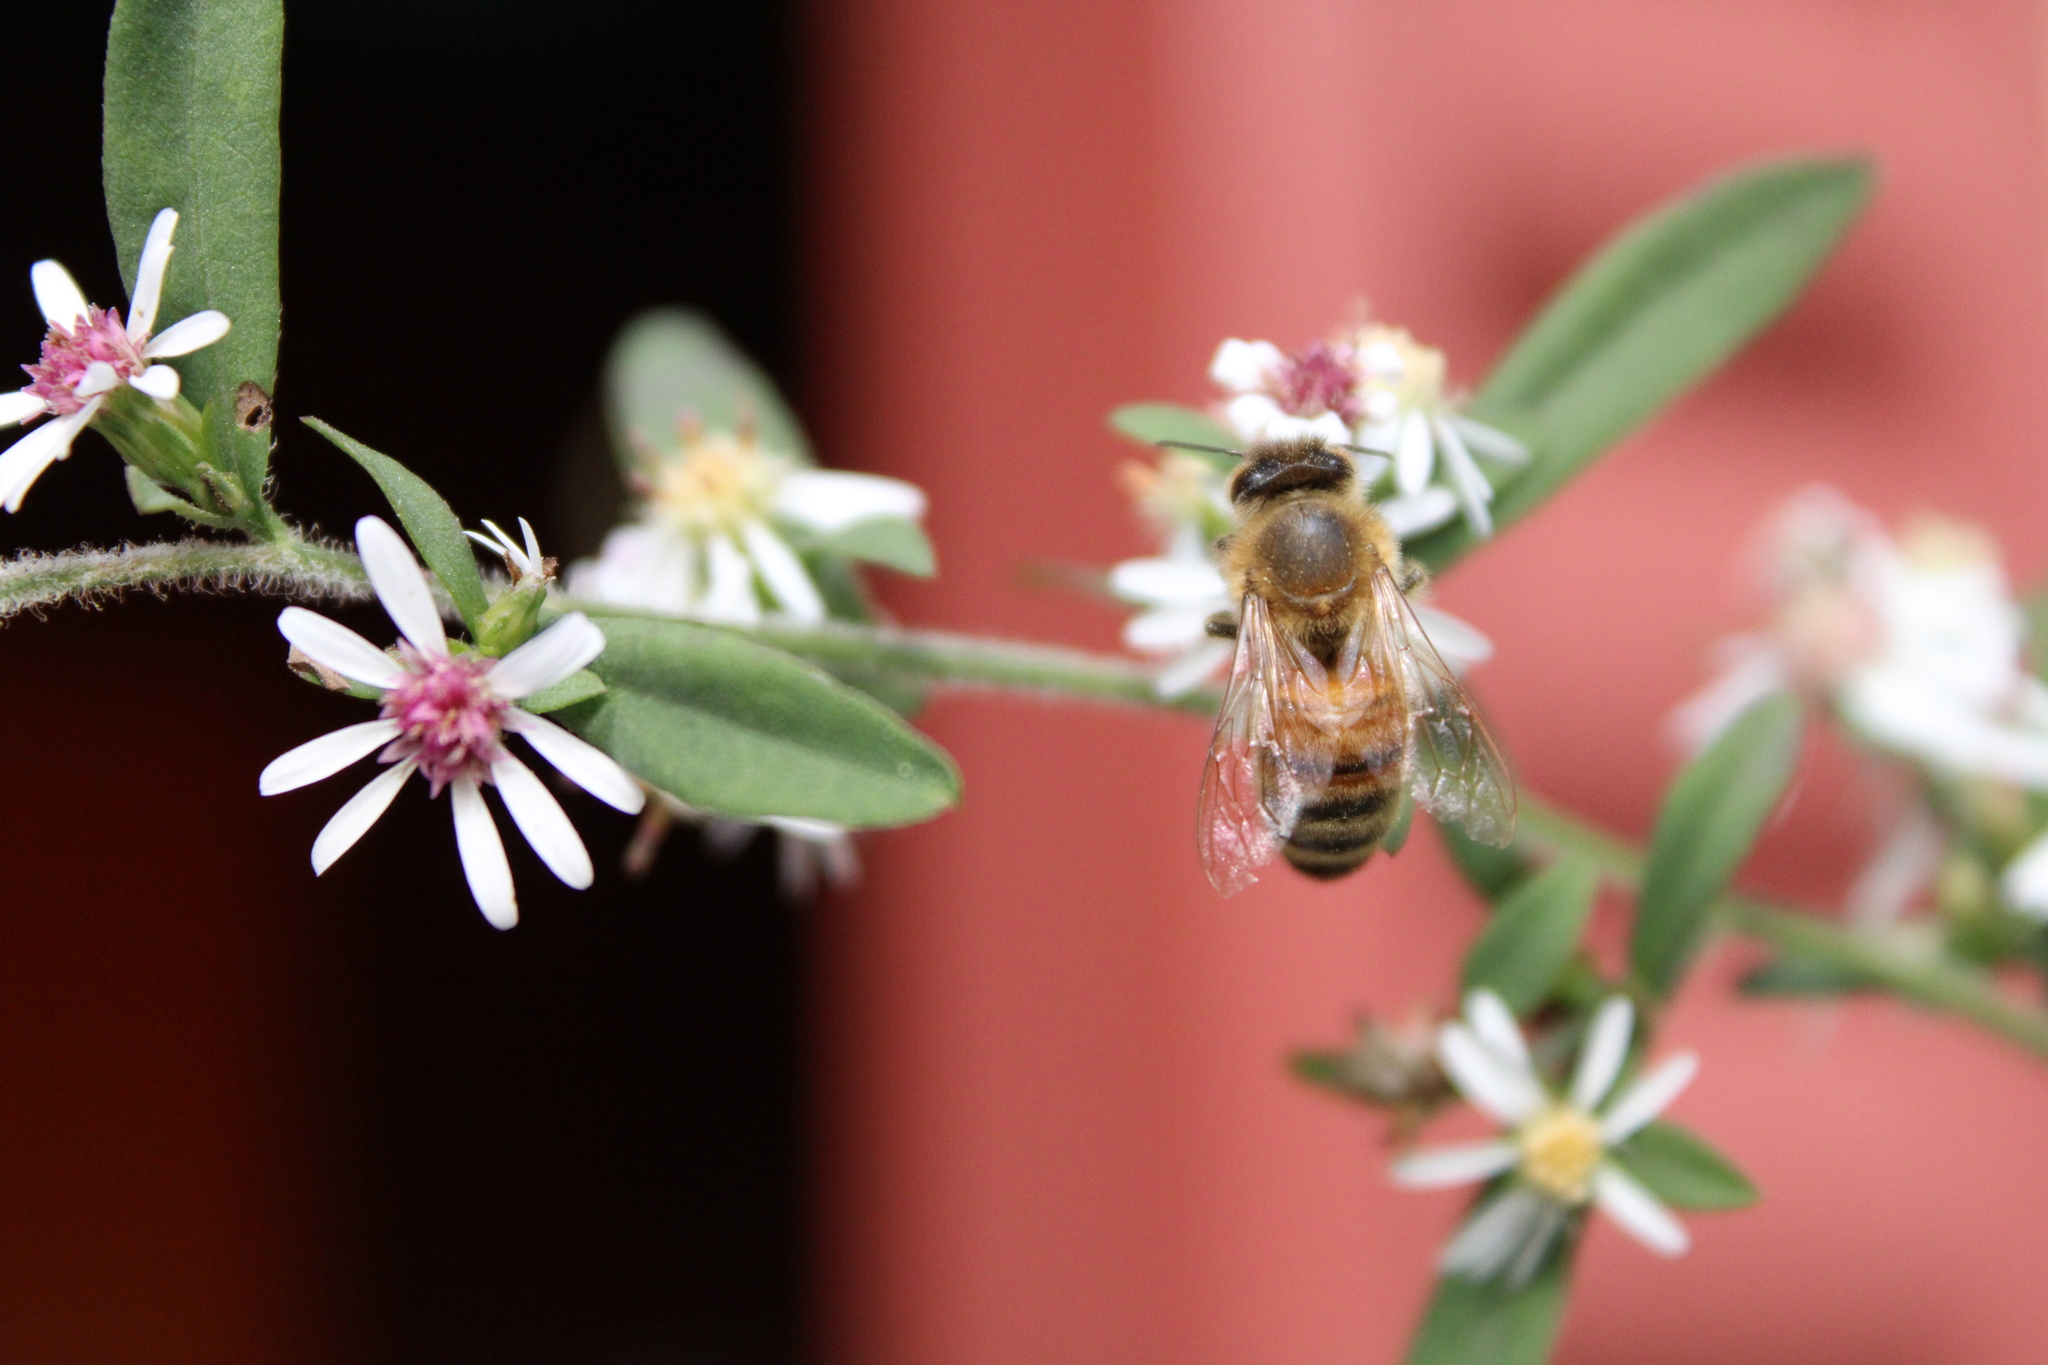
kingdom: Animalia
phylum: Arthropoda
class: Insecta
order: Hymenoptera
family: Apidae
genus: Apis
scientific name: Apis mellifera
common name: Honey bee
